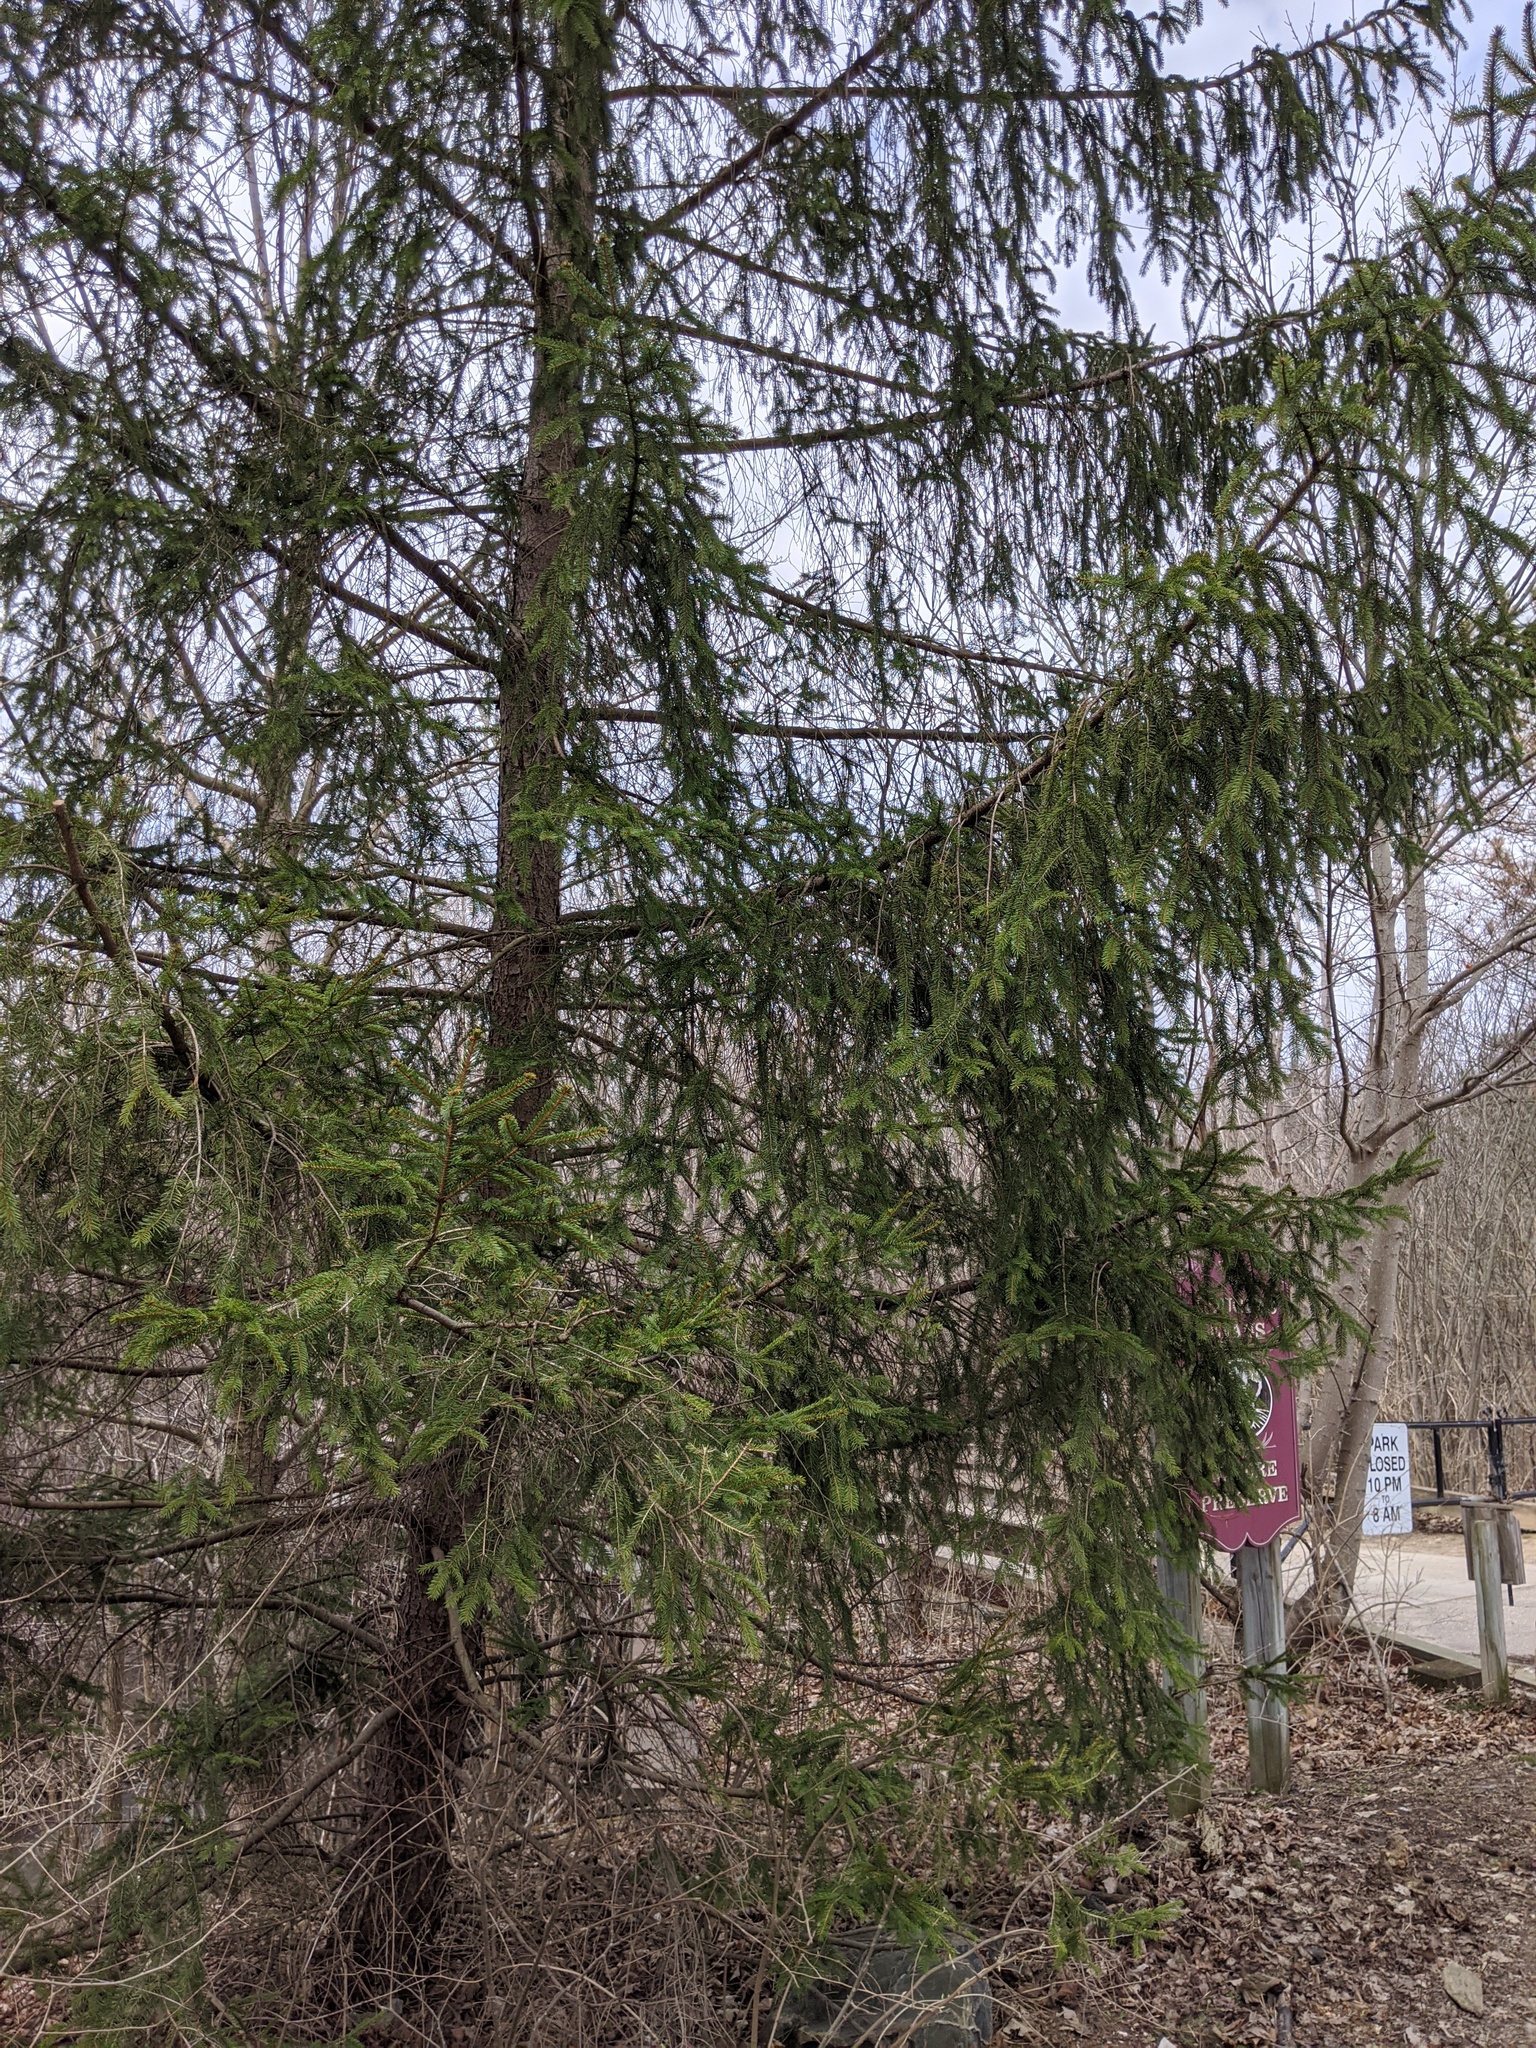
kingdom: Plantae
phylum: Tracheophyta
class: Pinopsida
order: Pinales
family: Pinaceae
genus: Picea
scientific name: Picea abies
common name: Norway spruce
